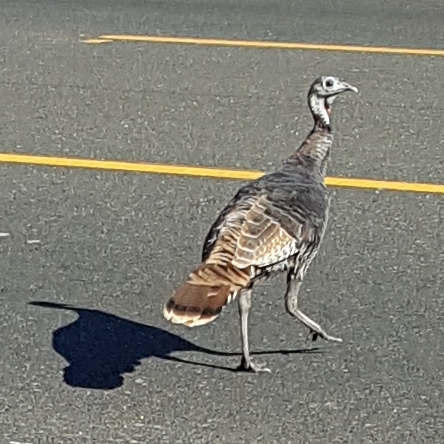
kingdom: Animalia
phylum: Chordata
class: Aves
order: Galliformes
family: Phasianidae
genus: Meleagris
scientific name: Meleagris gallopavo
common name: Wild turkey
